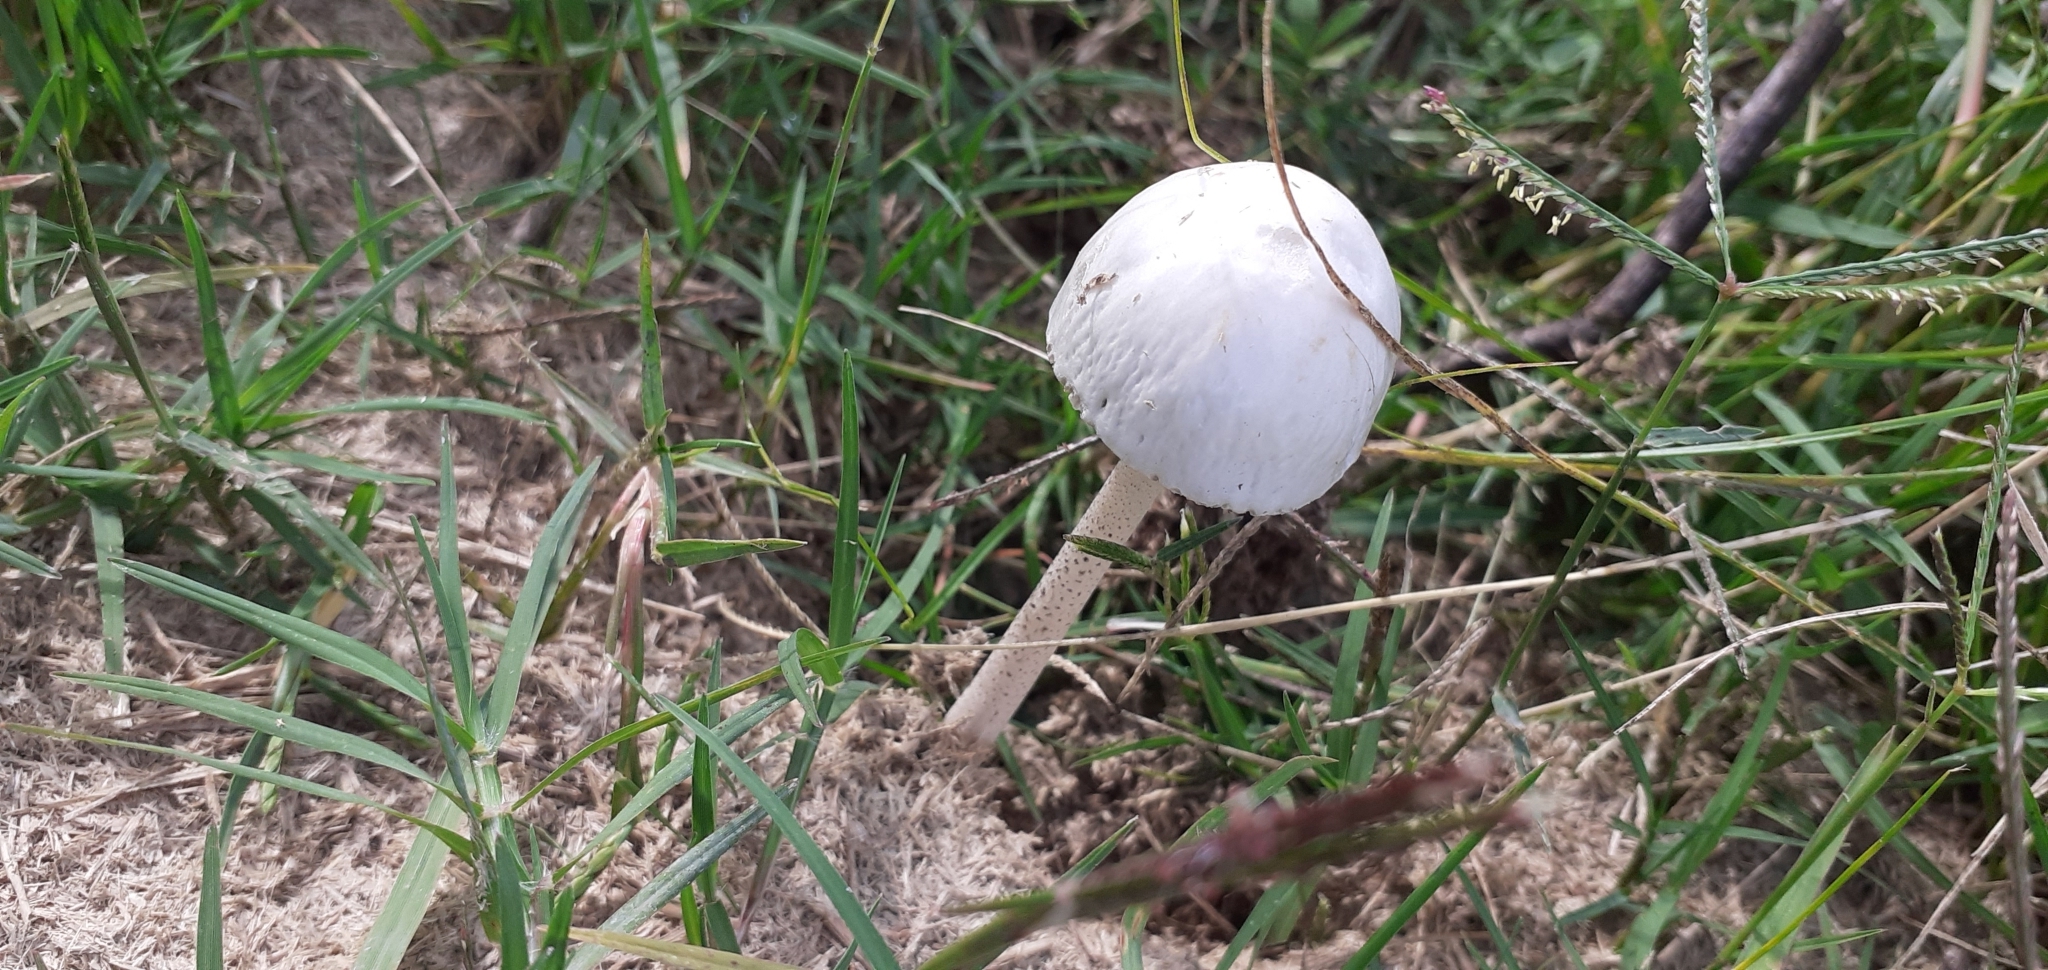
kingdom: Fungi
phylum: Basidiomycota
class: Agaricomycetes
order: Agaricales
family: Bolbitiaceae
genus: Panaeolus
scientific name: Panaeolus antillarum
